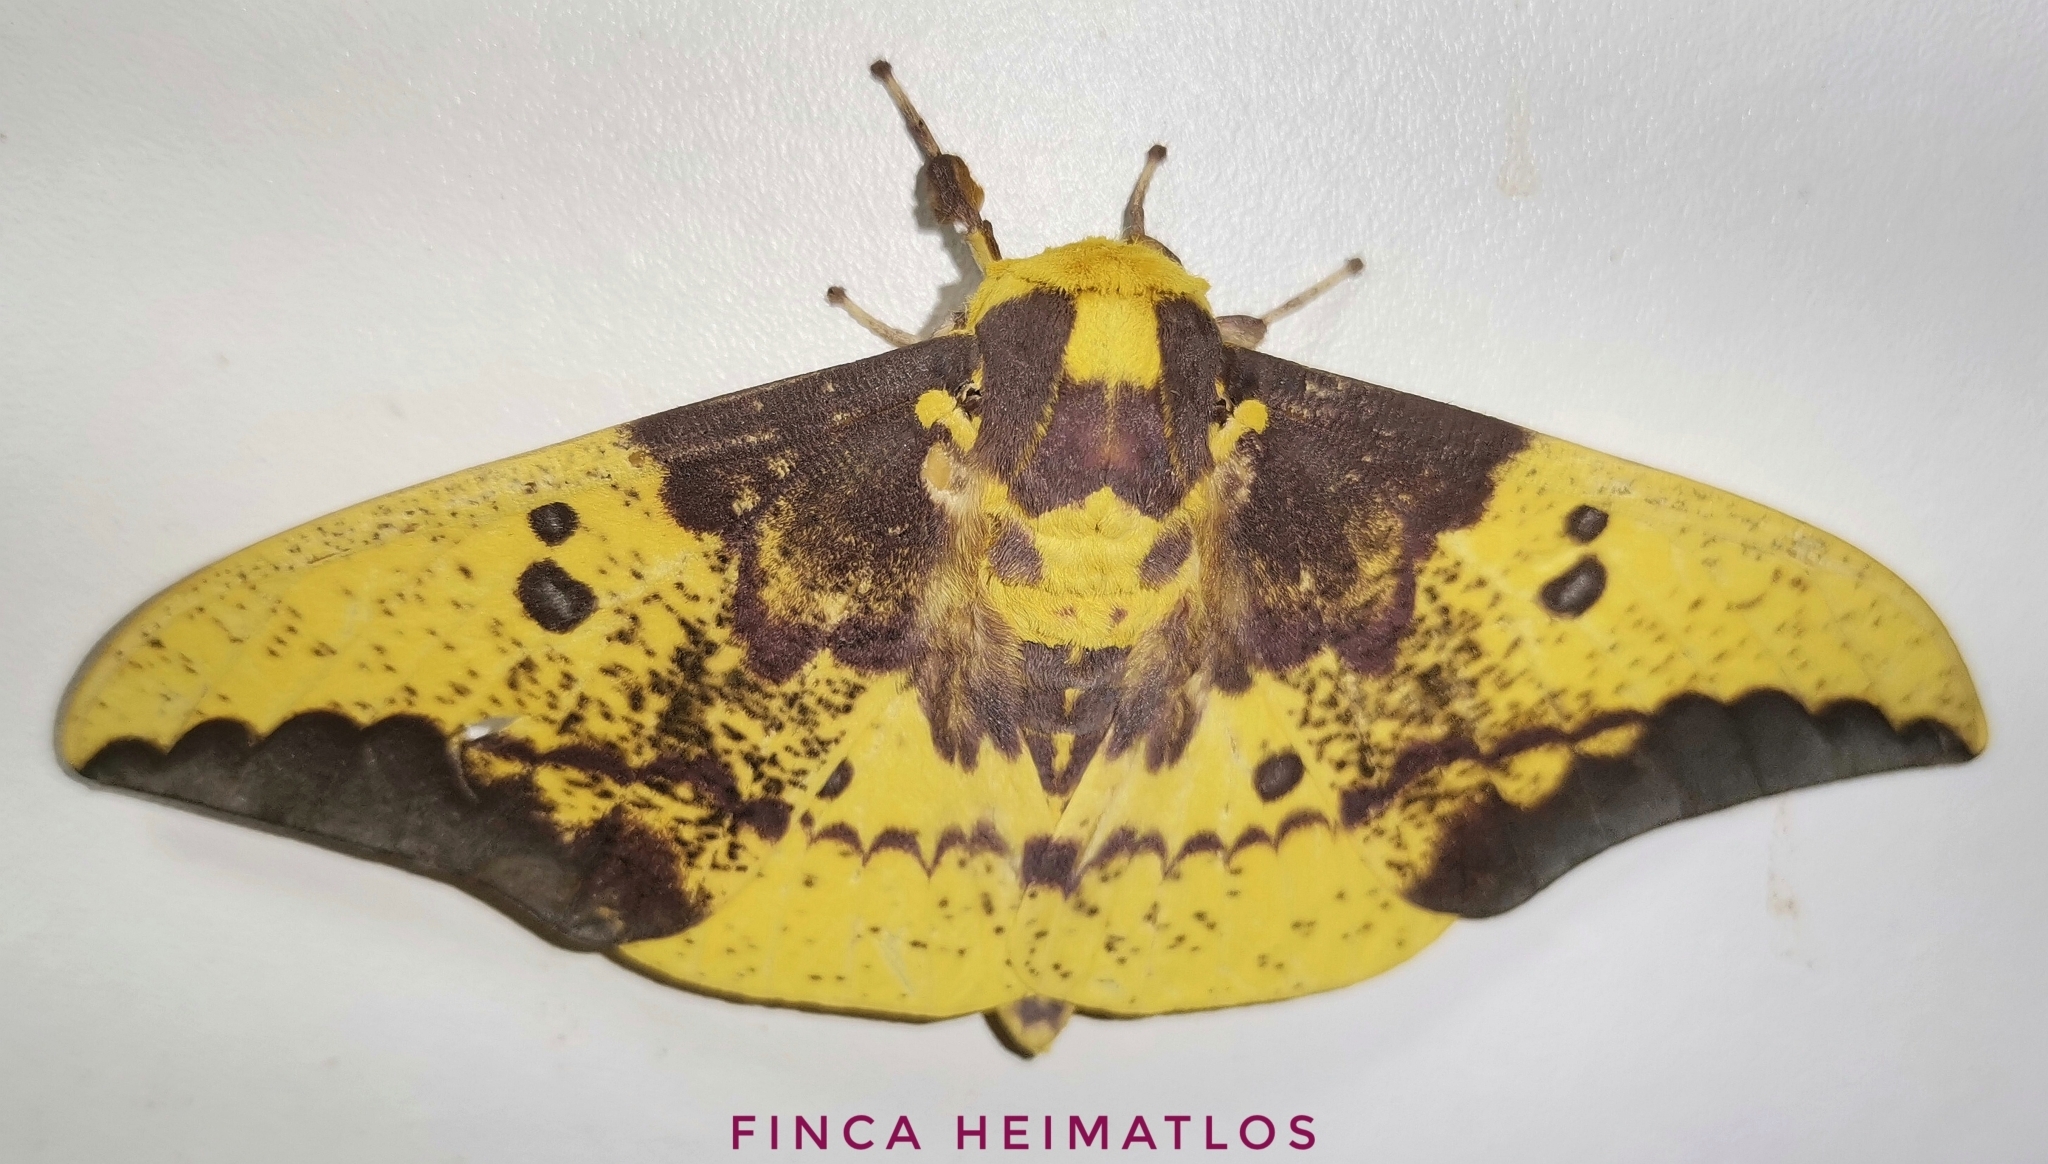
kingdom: Animalia
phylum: Arthropoda
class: Insecta
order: Lepidoptera
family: Saturniidae
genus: Eacles
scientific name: Eacles imperialis
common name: Imperial moth
